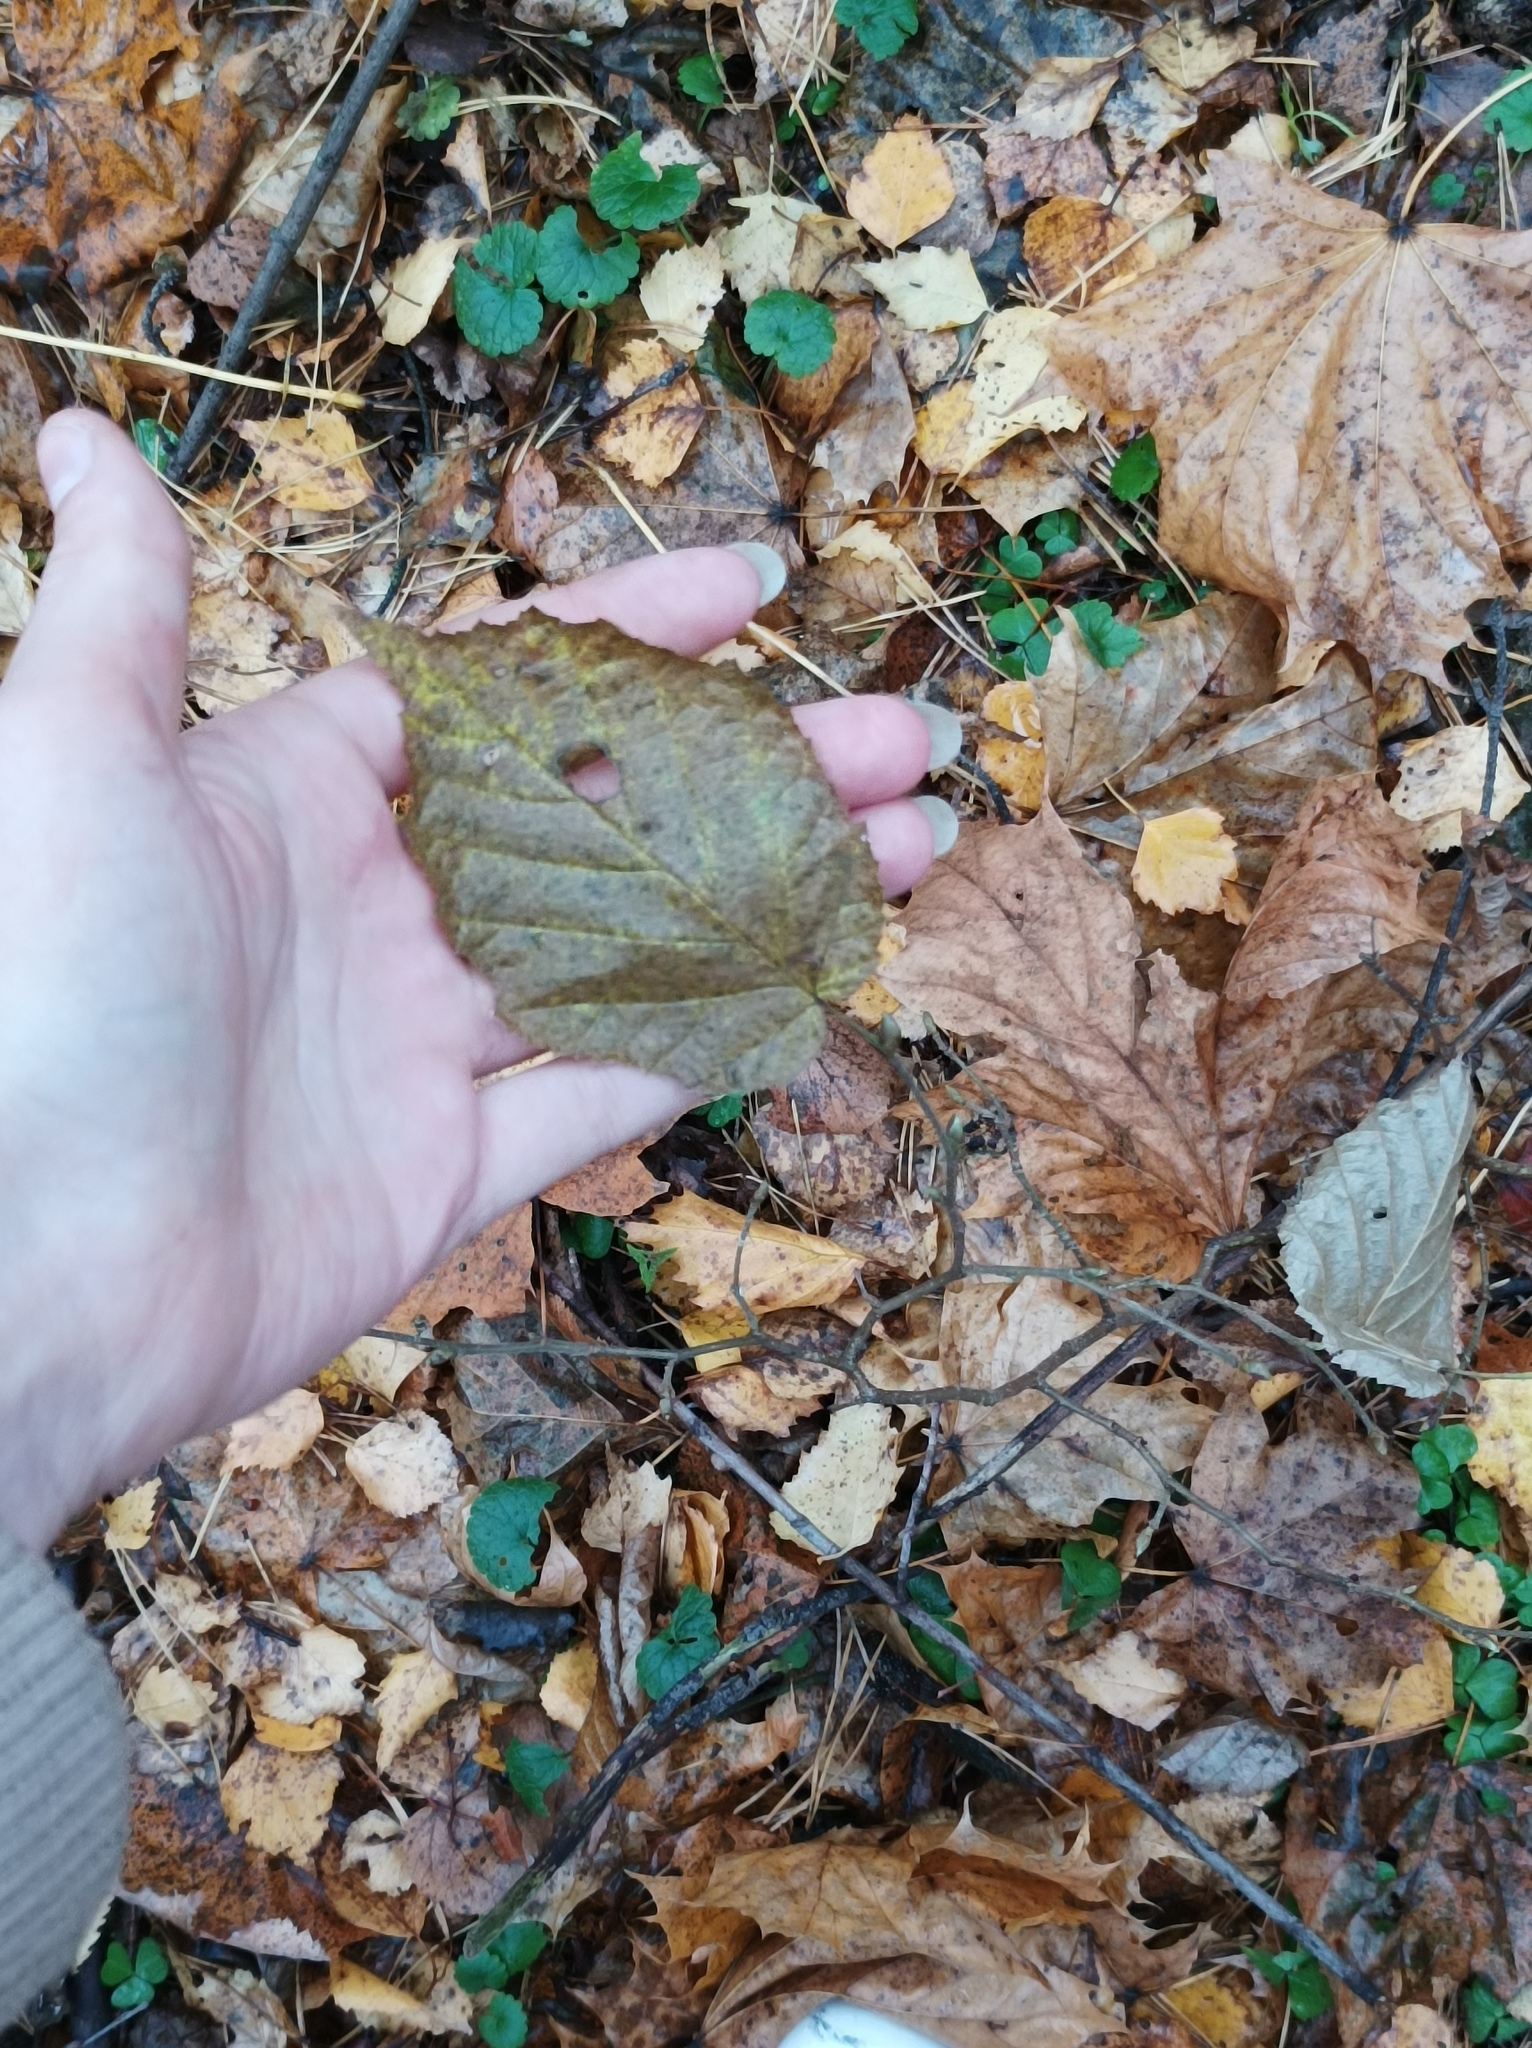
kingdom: Plantae
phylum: Tracheophyta
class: Magnoliopsida
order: Fagales
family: Betulaceae
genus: Corylus
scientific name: Corylus avellana
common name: European hazel
